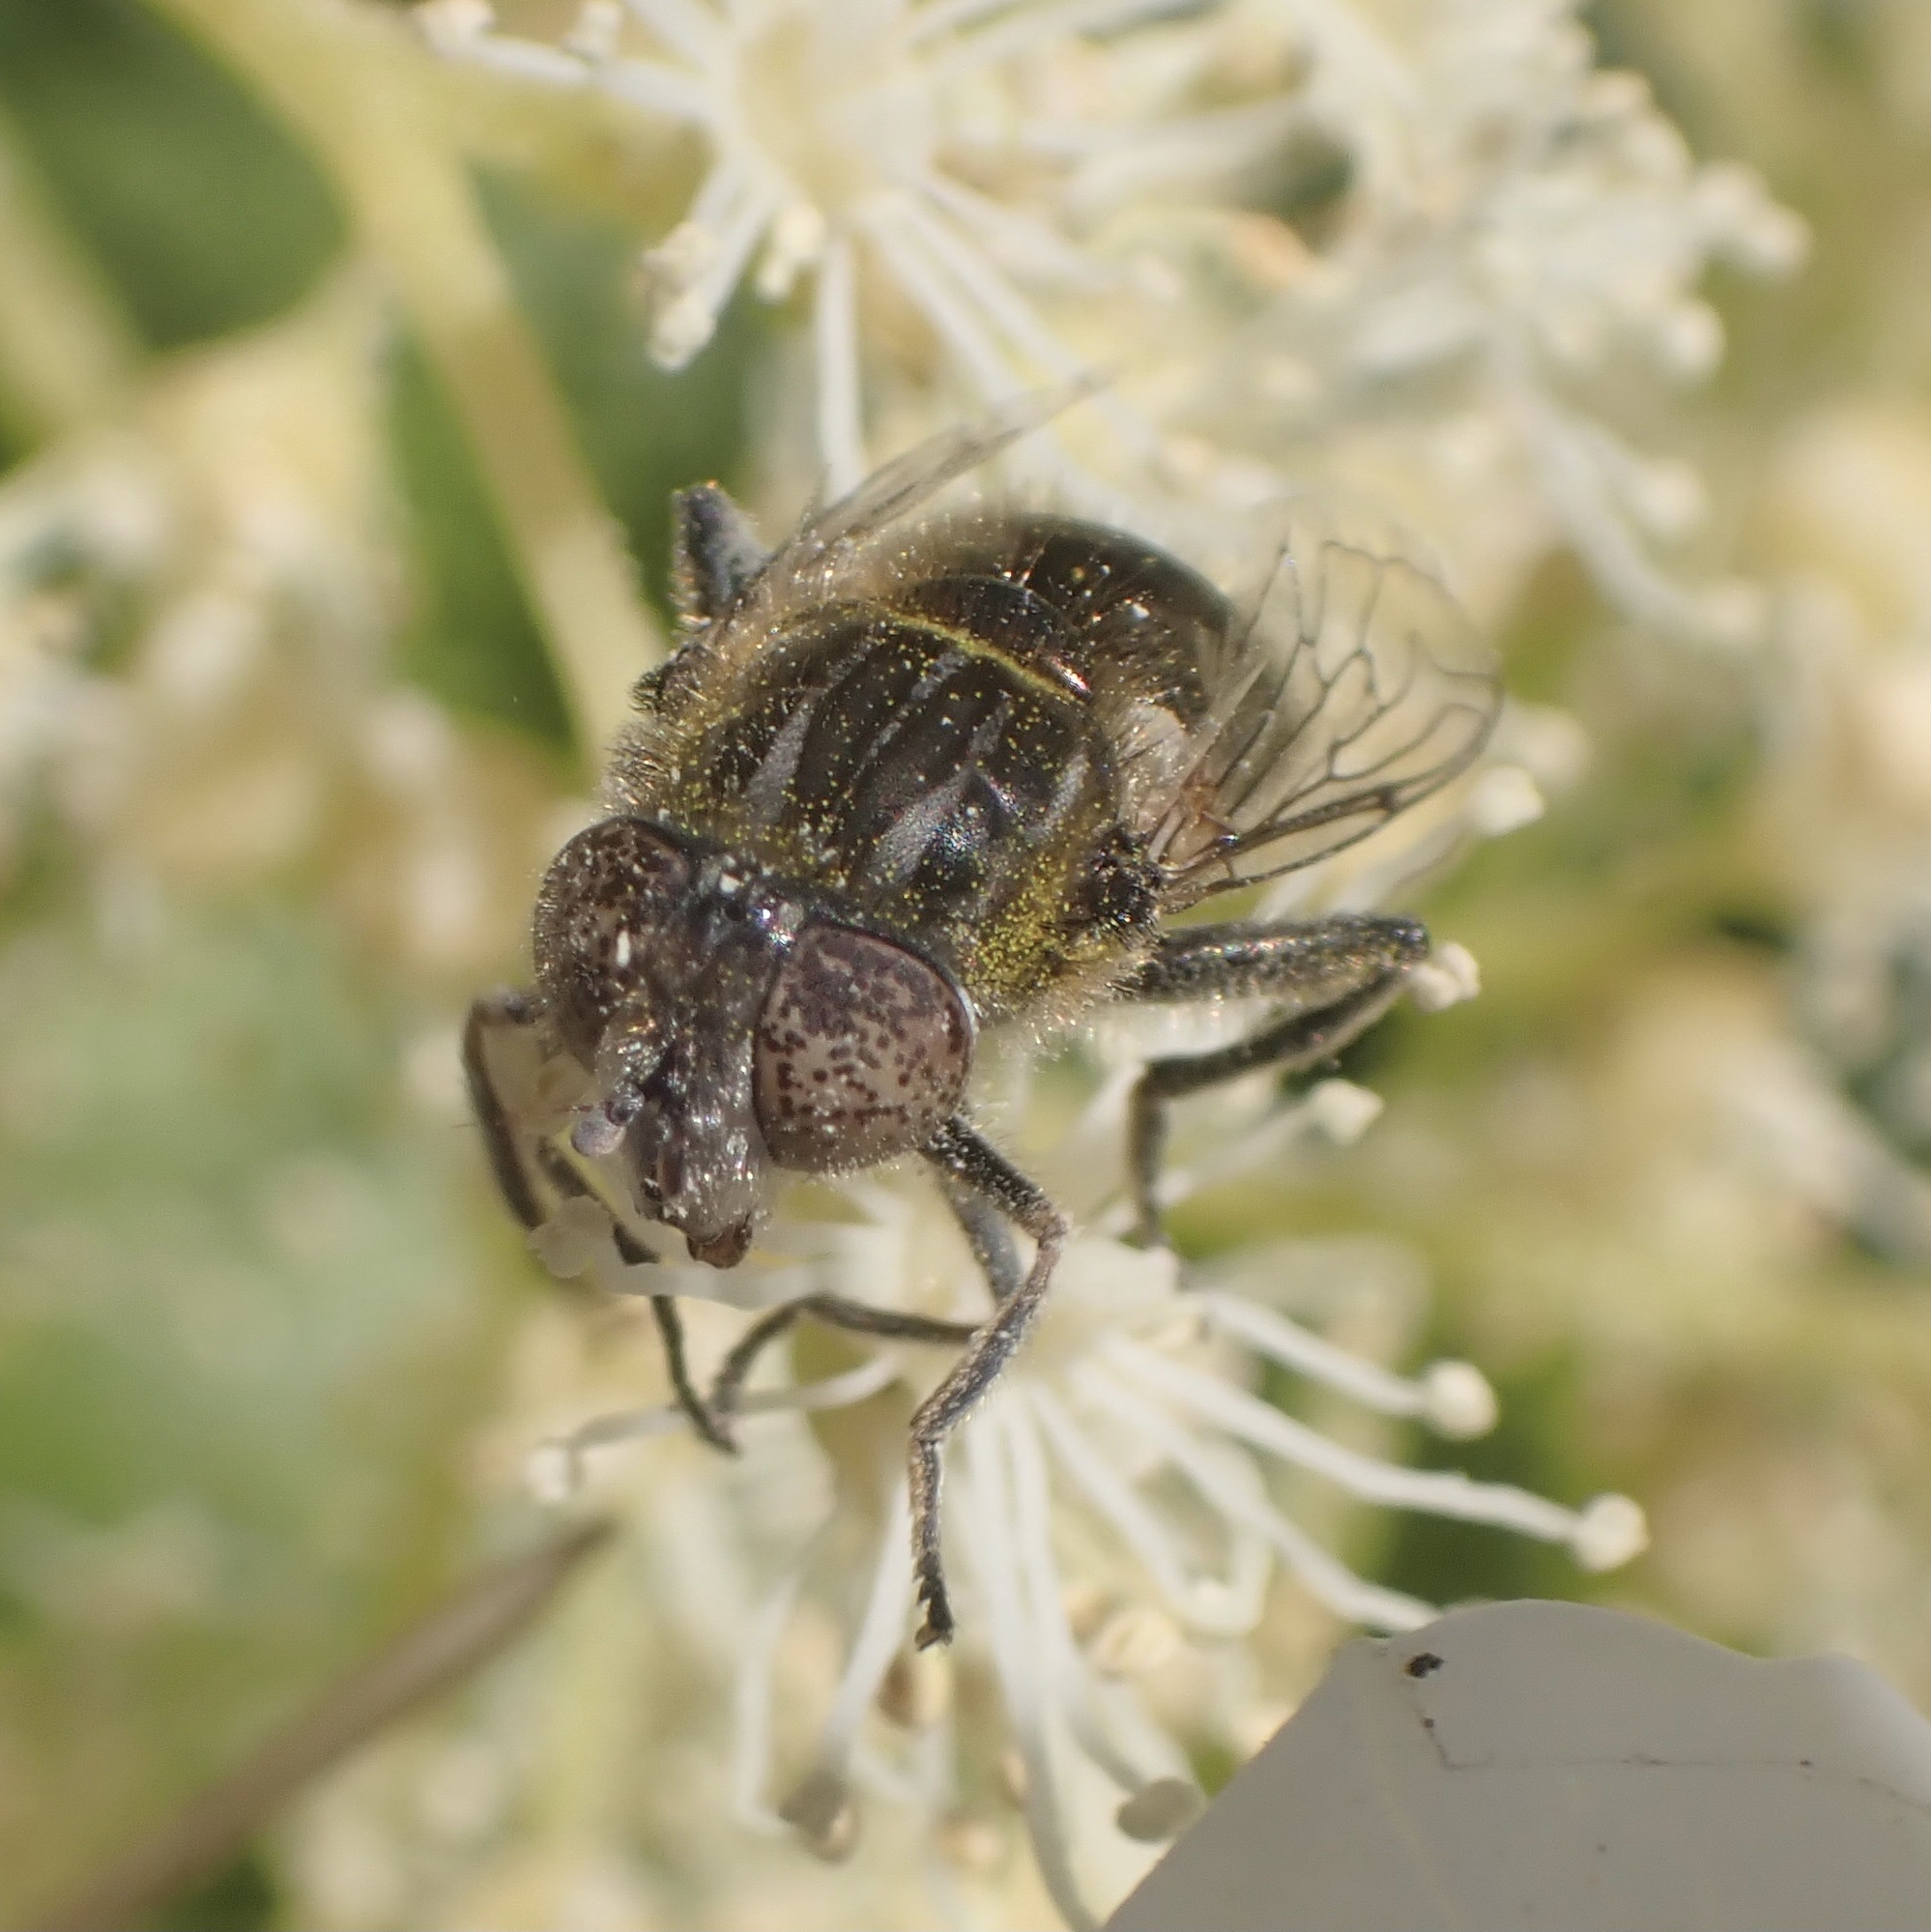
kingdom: Animalia
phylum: Arthropoda
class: Insecta
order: Diptera
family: Syrphidae
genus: Eristalinus
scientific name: Eristalinus sepulchralis
